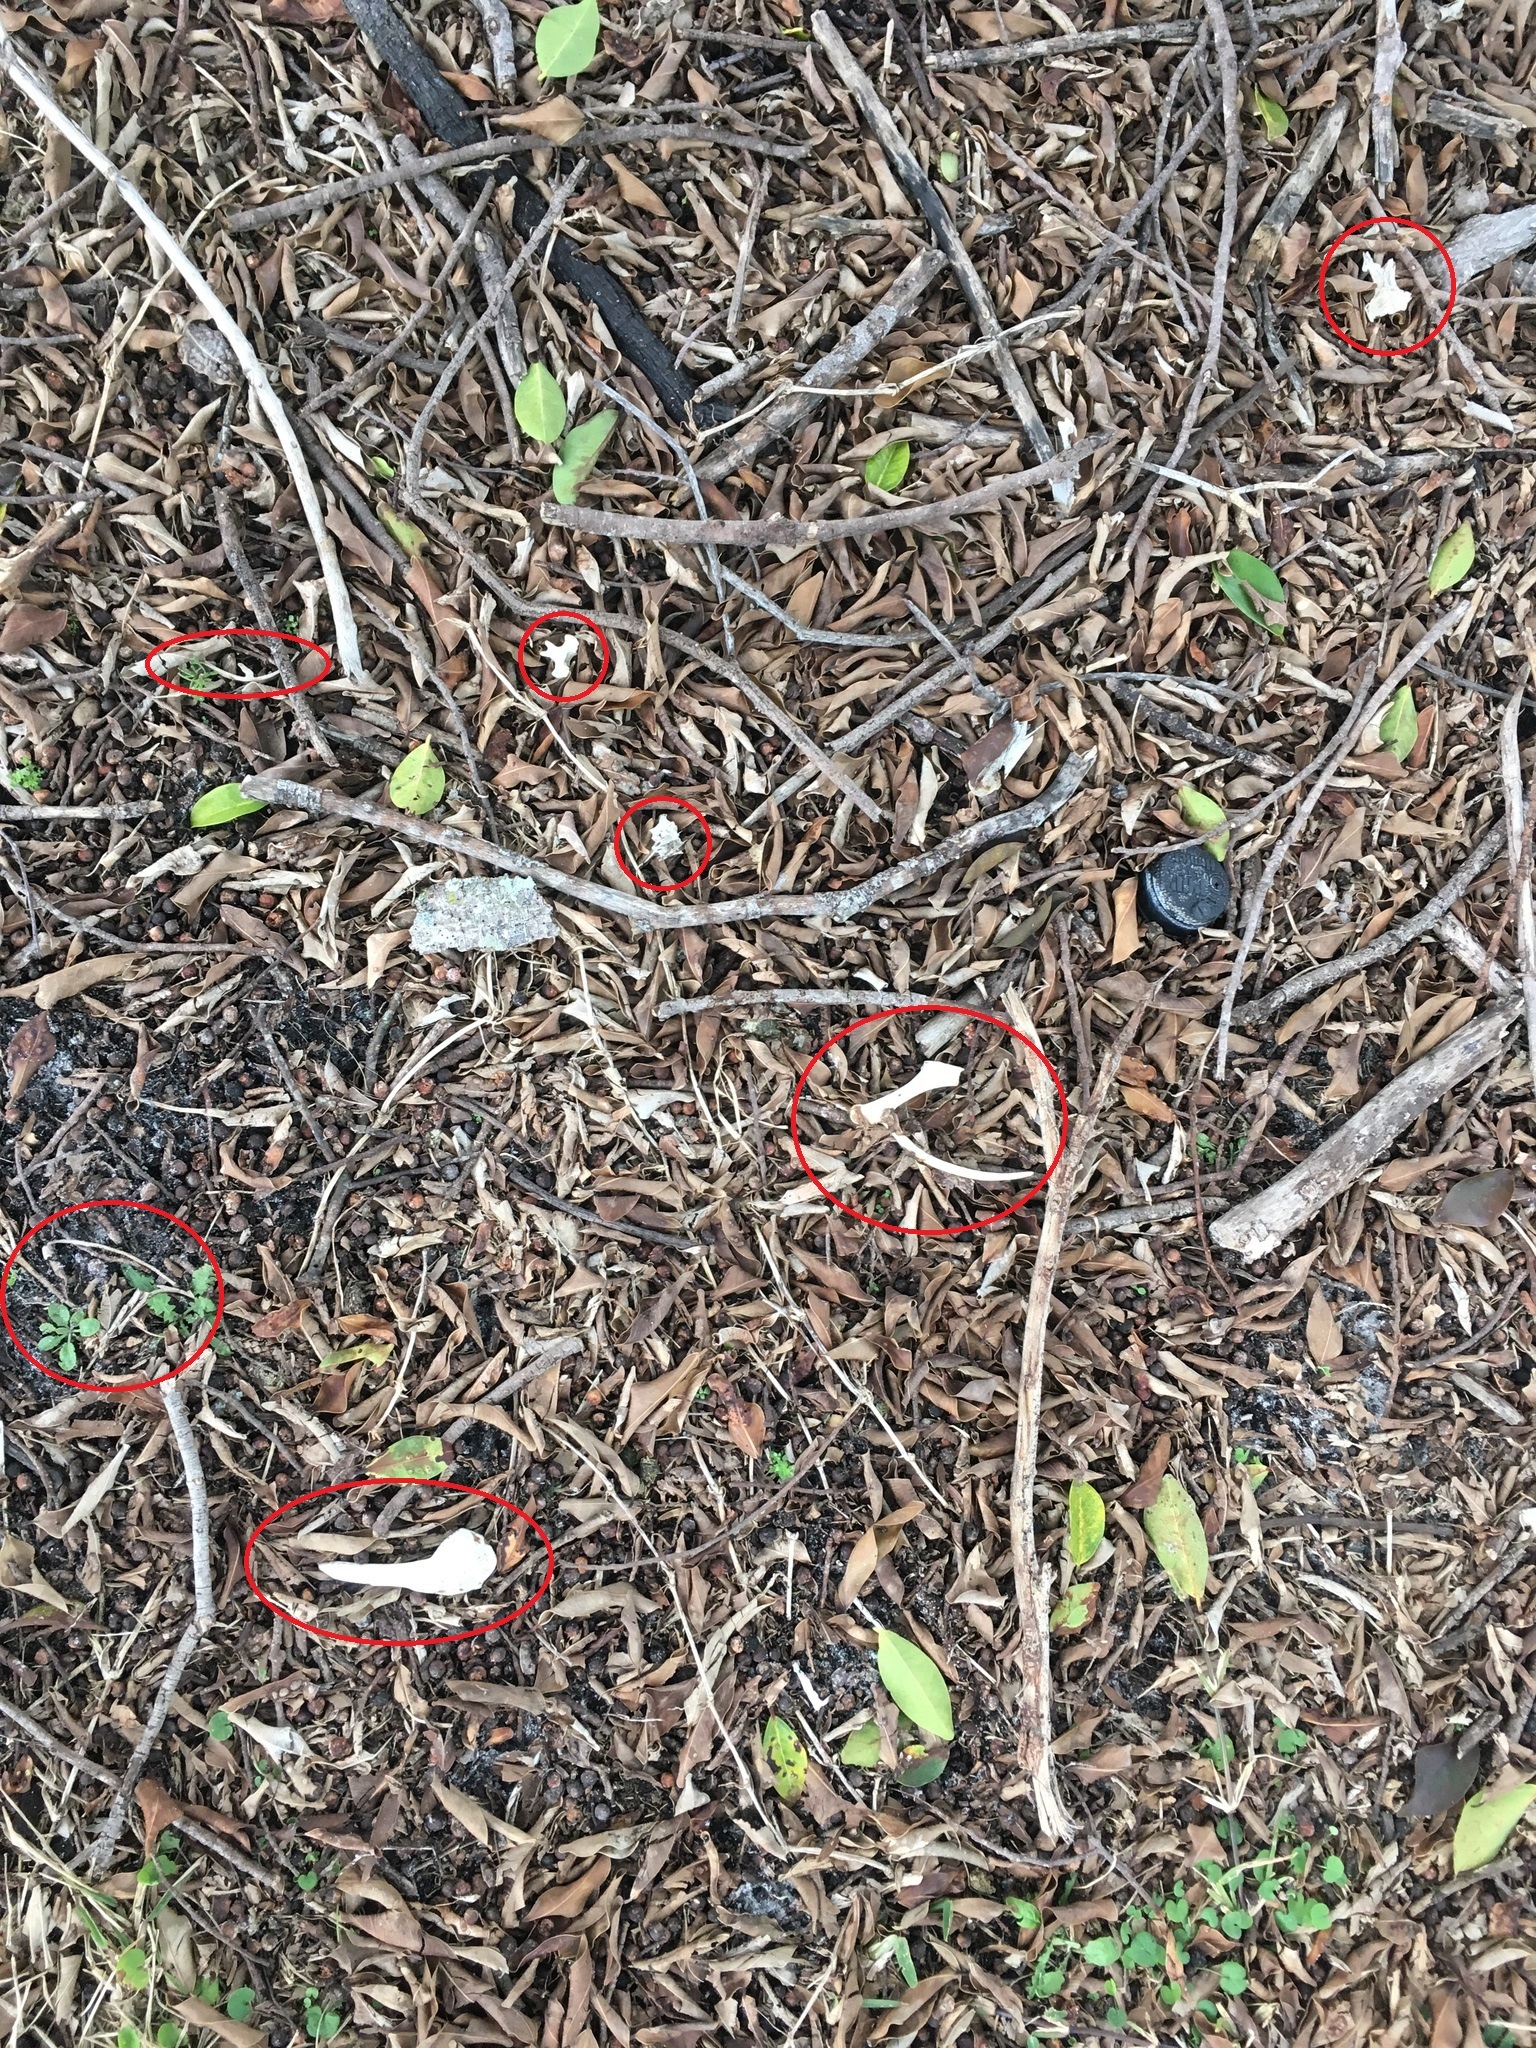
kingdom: Animalia
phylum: Chordata
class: Aves
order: Anseriformes
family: Anatidae
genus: Alopochen
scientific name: Alopochen aegyptiaca
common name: Egyptian goose
